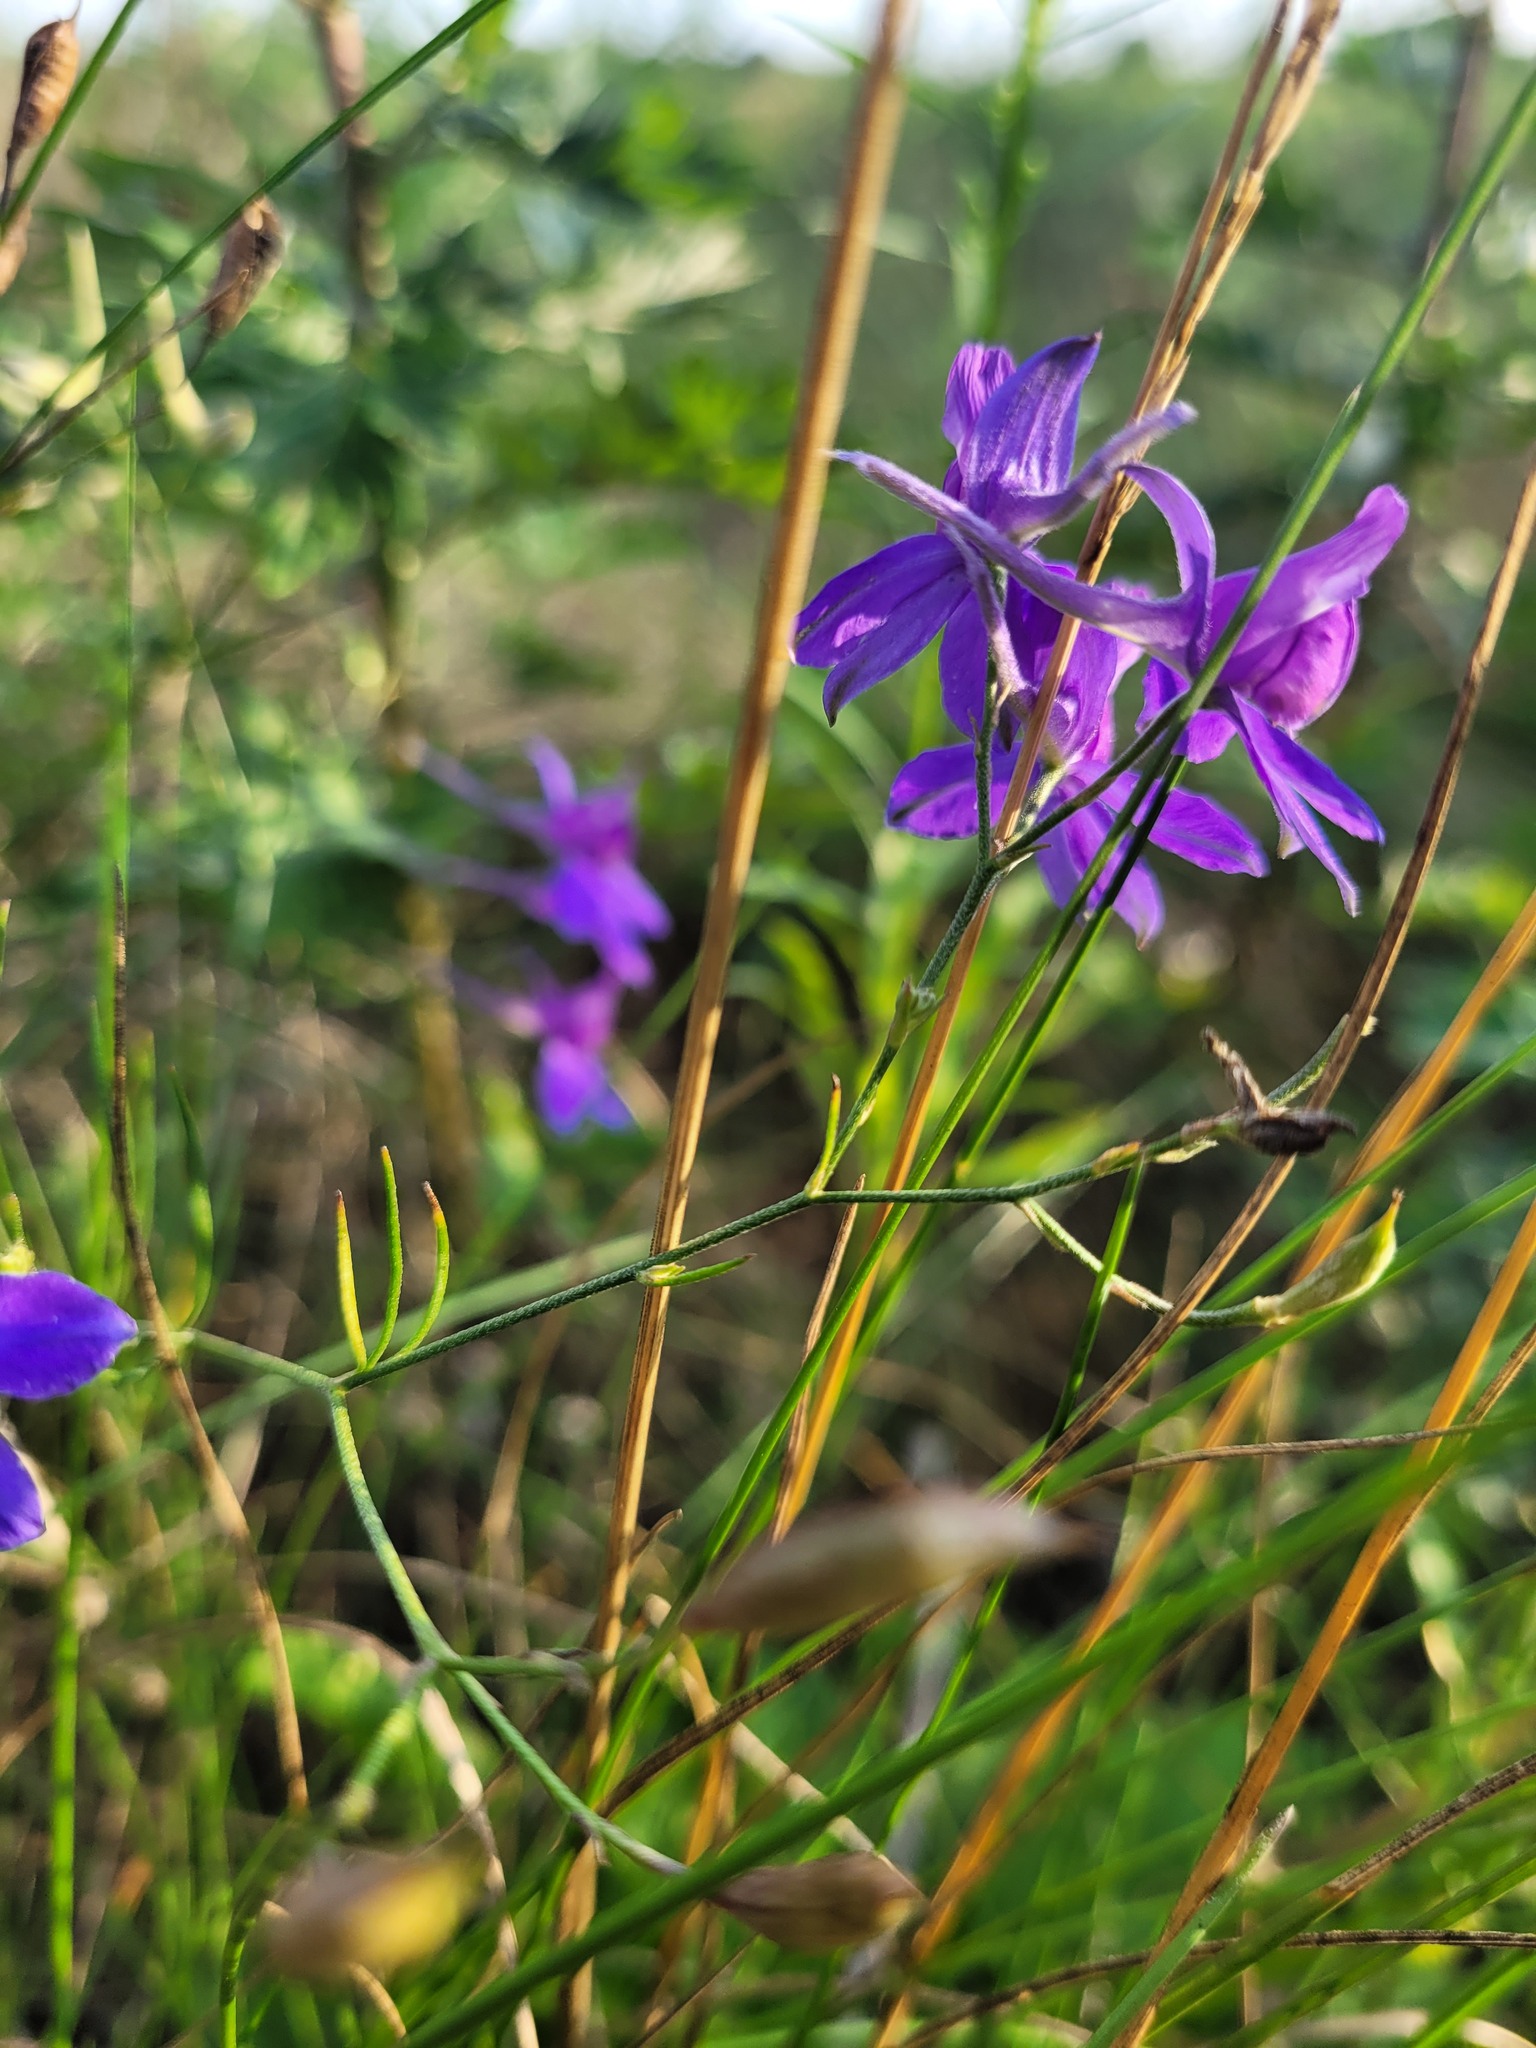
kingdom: Plantae
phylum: Tracheophyta
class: Magnoliopsida
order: Ranunculales
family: Ranunculaceae
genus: Delphinium
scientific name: Delphinium consolida
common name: Branching larkspur
